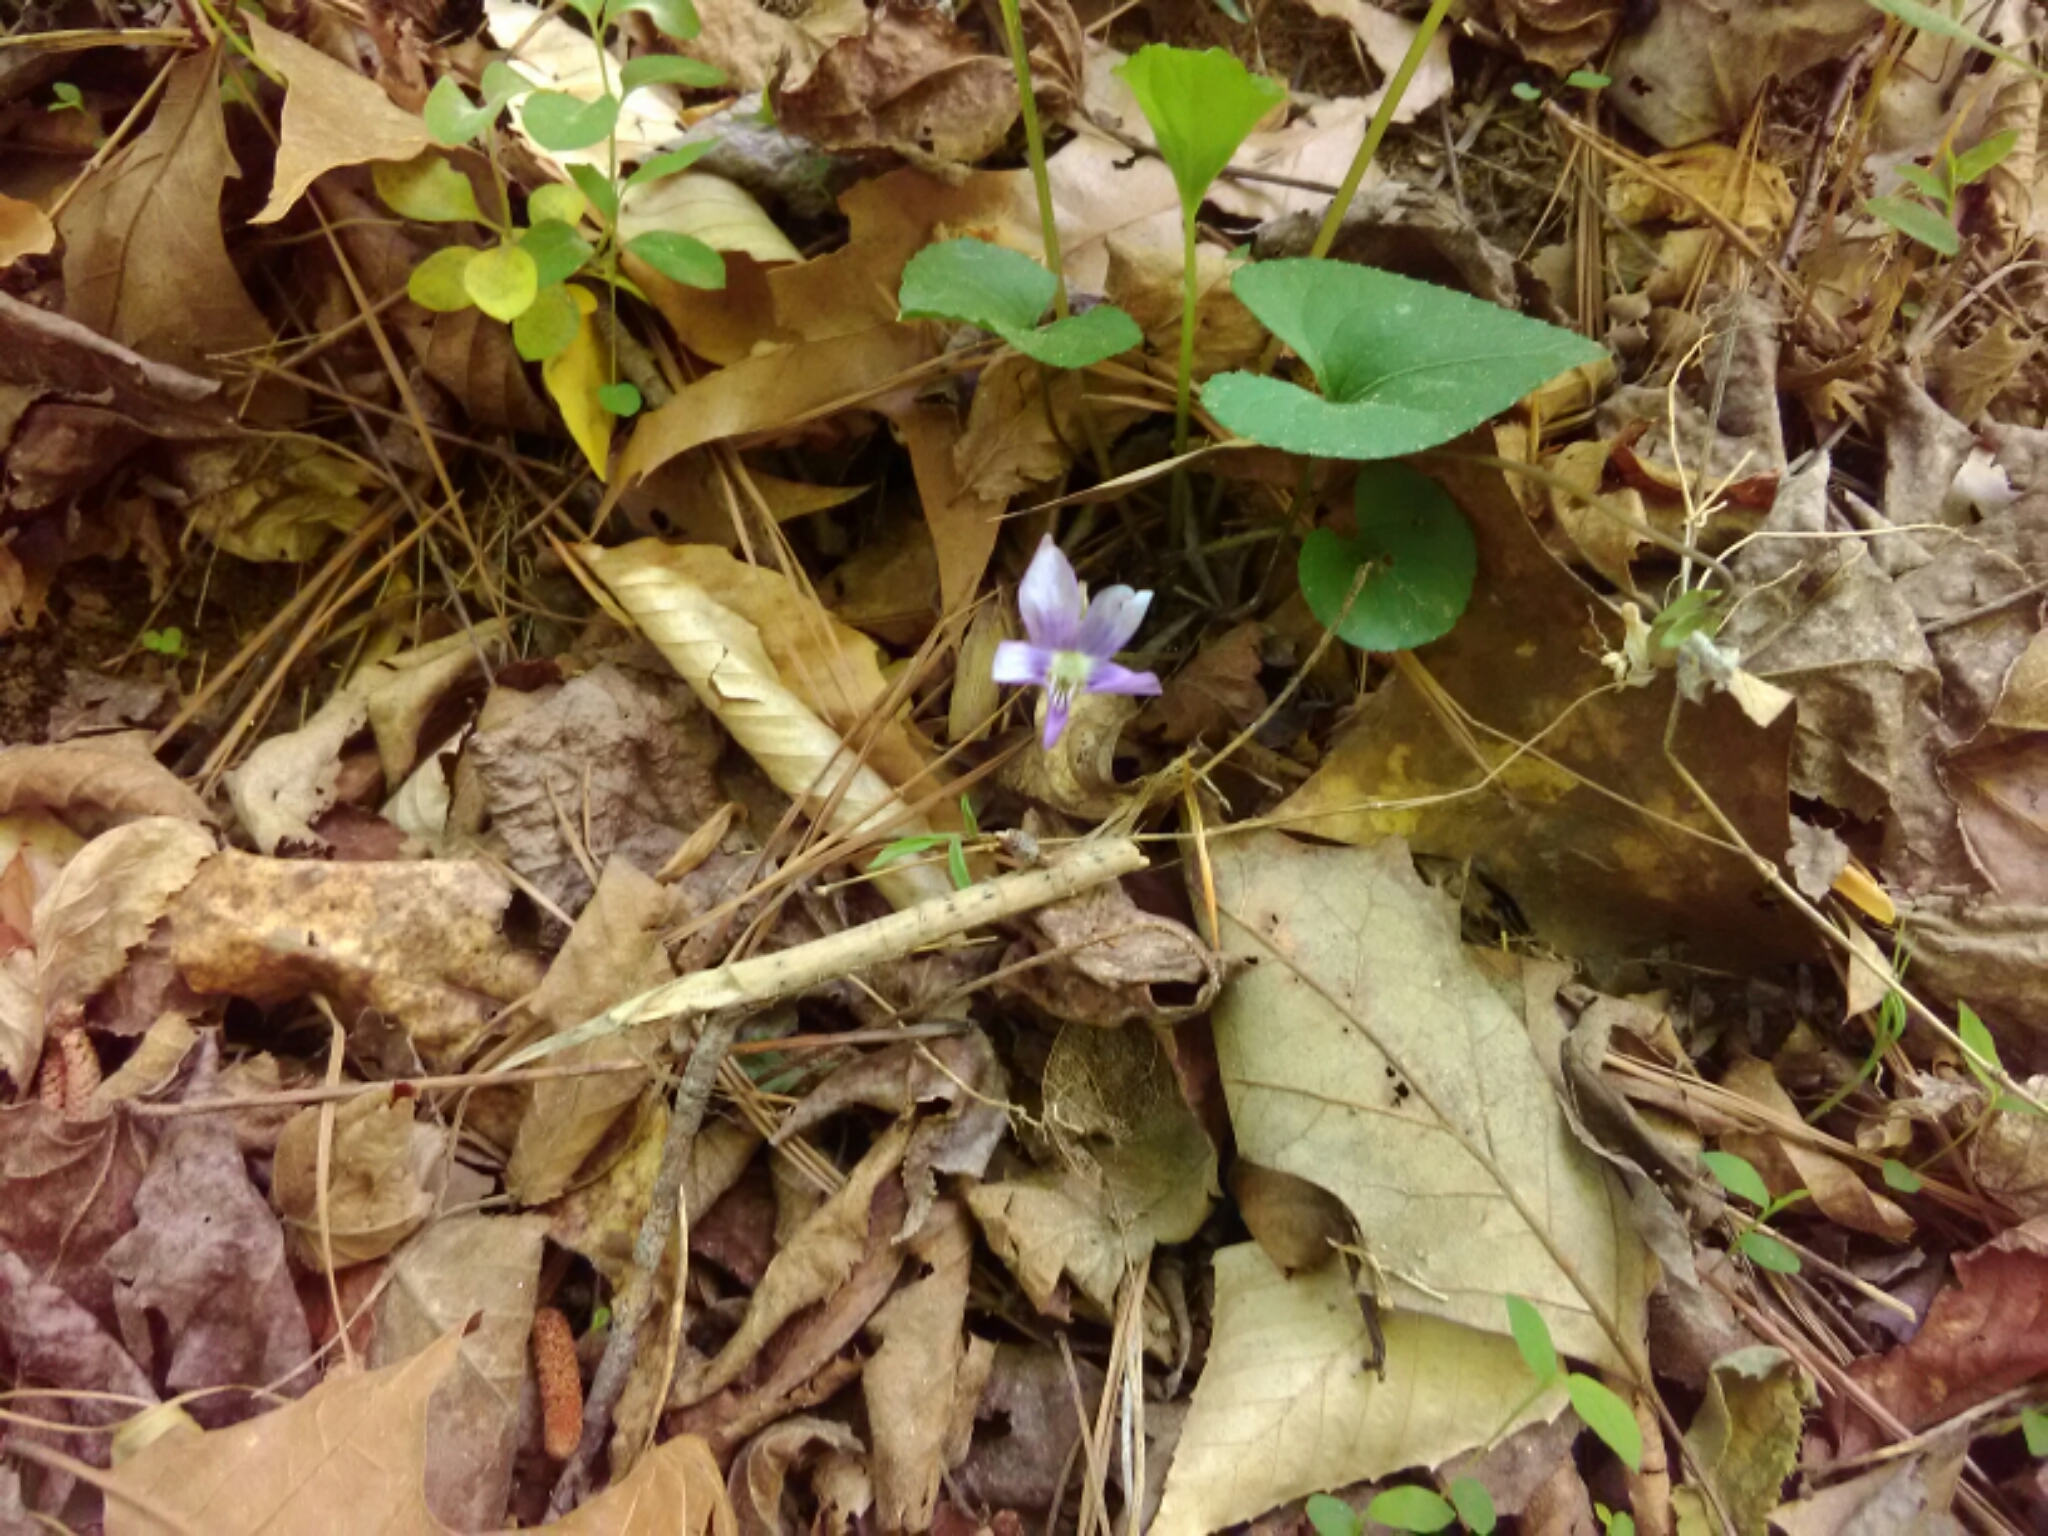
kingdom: Plantae
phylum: Tracheophyta
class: Magnoliopsida
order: Malpighiales
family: Violaceae
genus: Viola
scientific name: Viola sororia
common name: Dooryard violet
